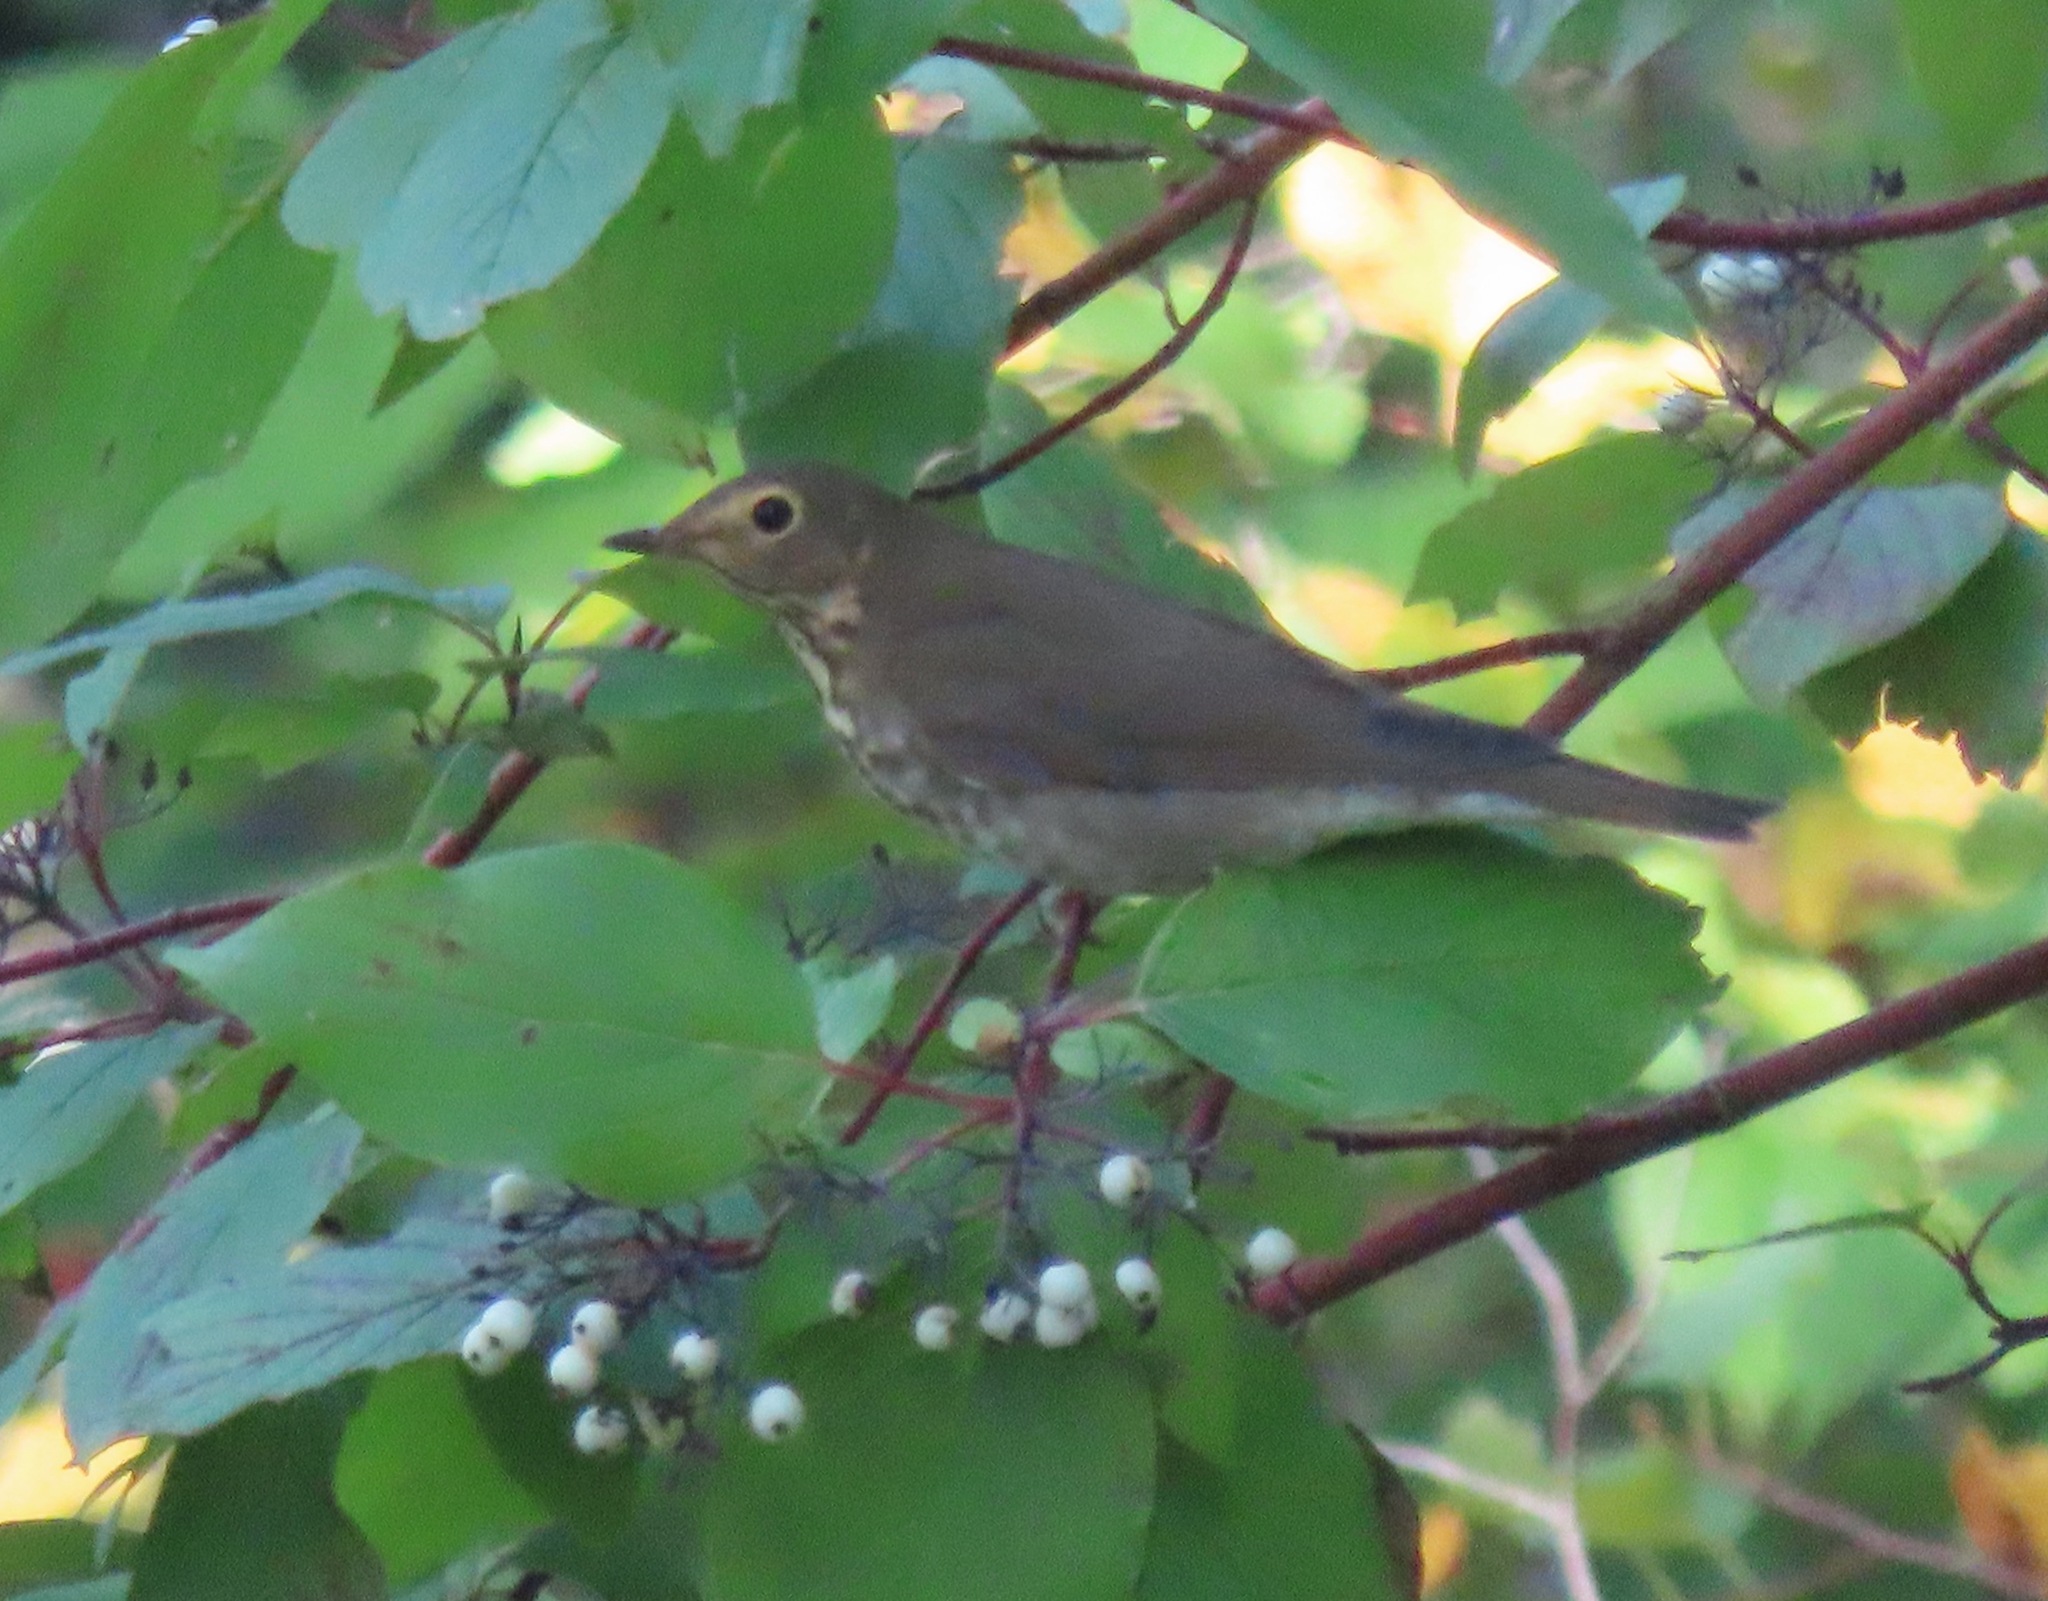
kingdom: Animalia
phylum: Chordata
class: Aves
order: Passeriformes
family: Turdidae
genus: Catharus
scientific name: Catharus ustulatus
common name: Swainson's thrush
